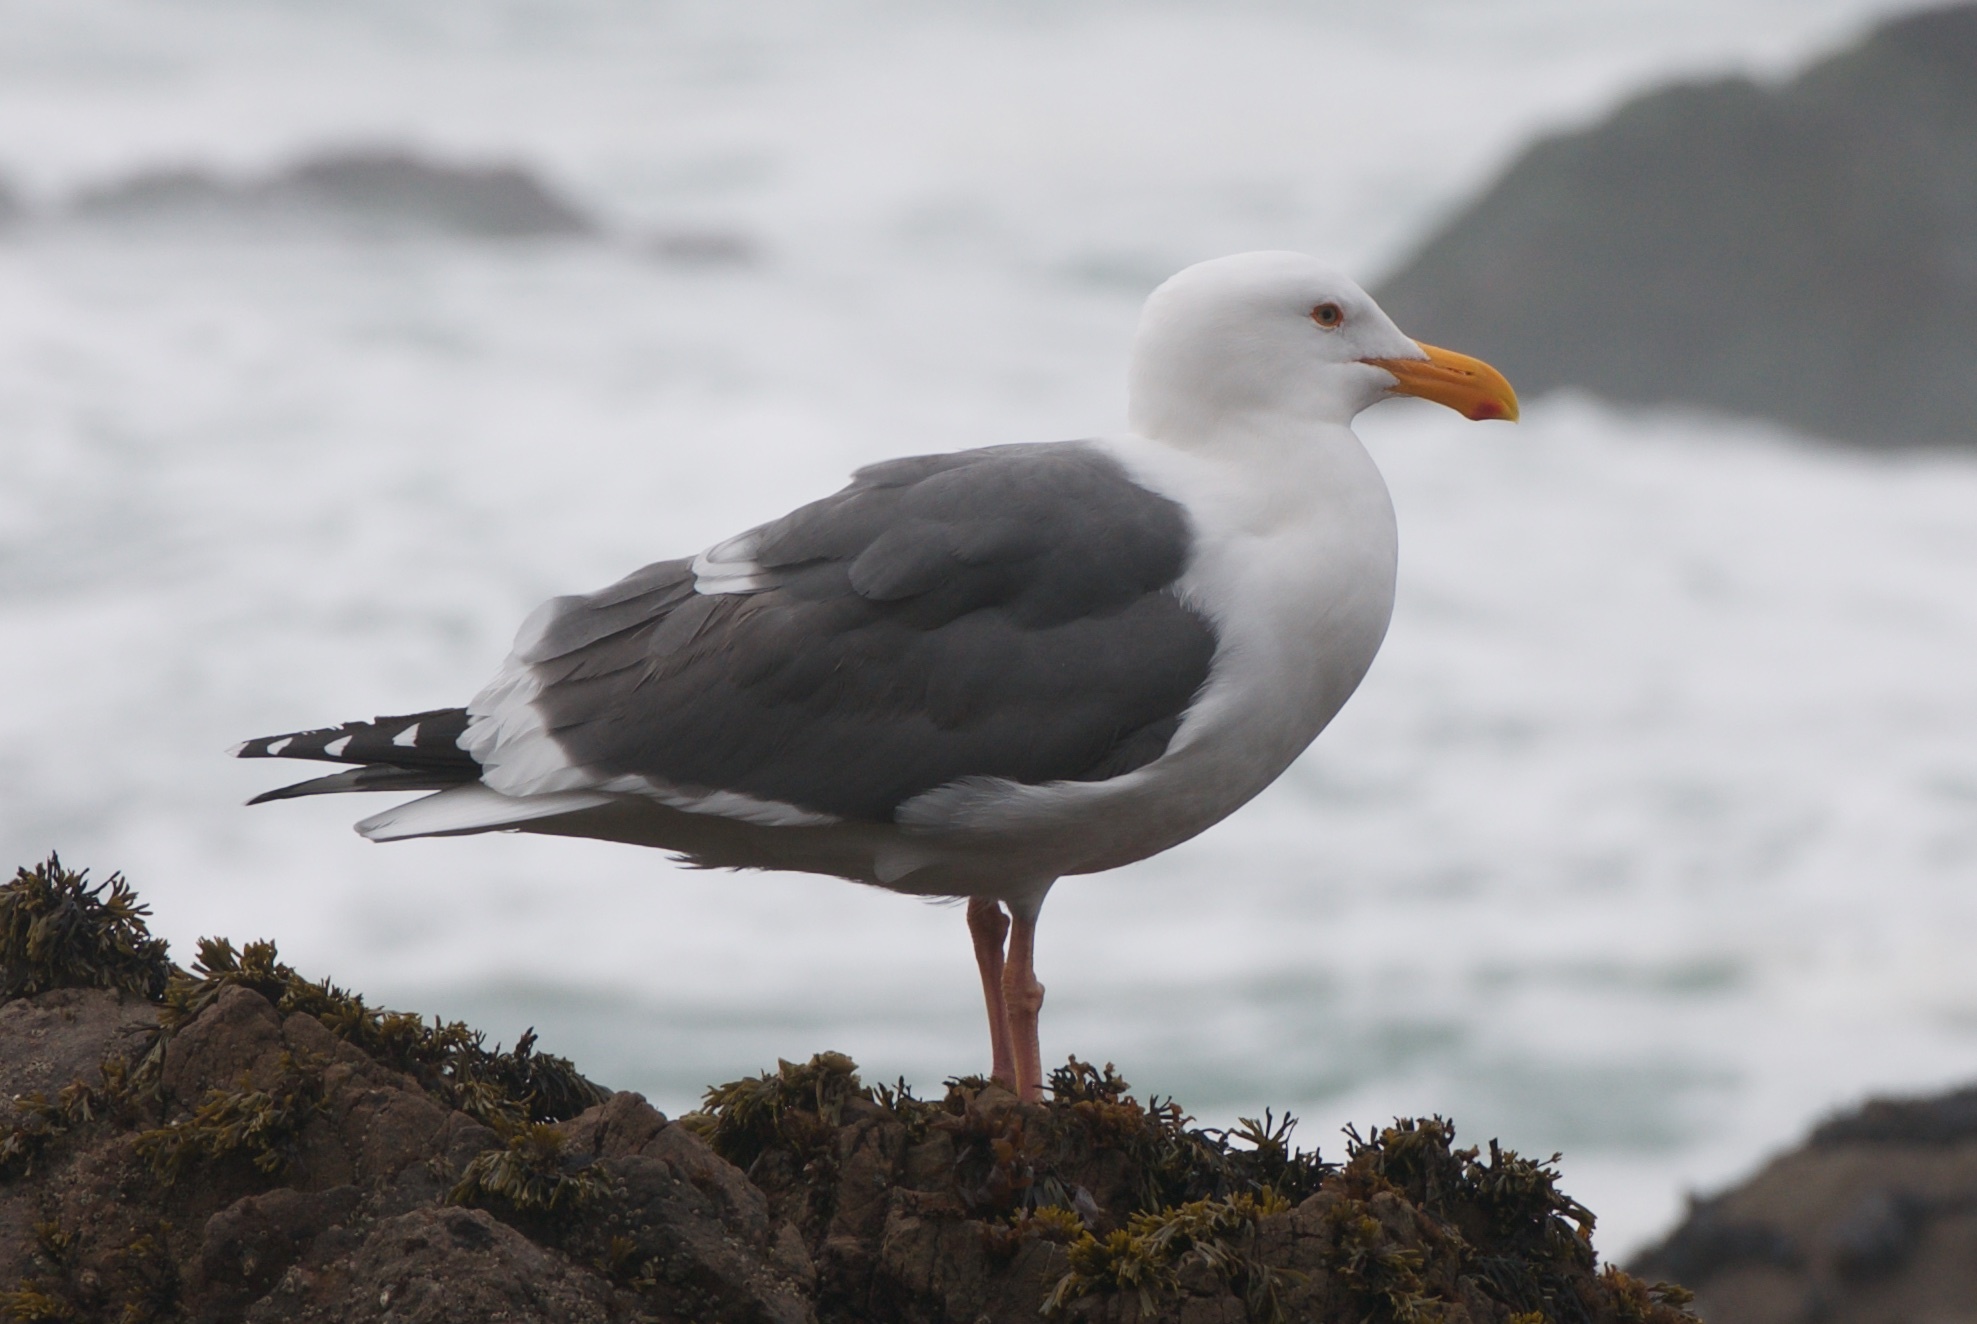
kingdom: Animalia
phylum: Chordata
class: Aves
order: Charadriiformes
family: Laridae
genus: Larus
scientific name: Larus occidentalis
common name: Western gull
